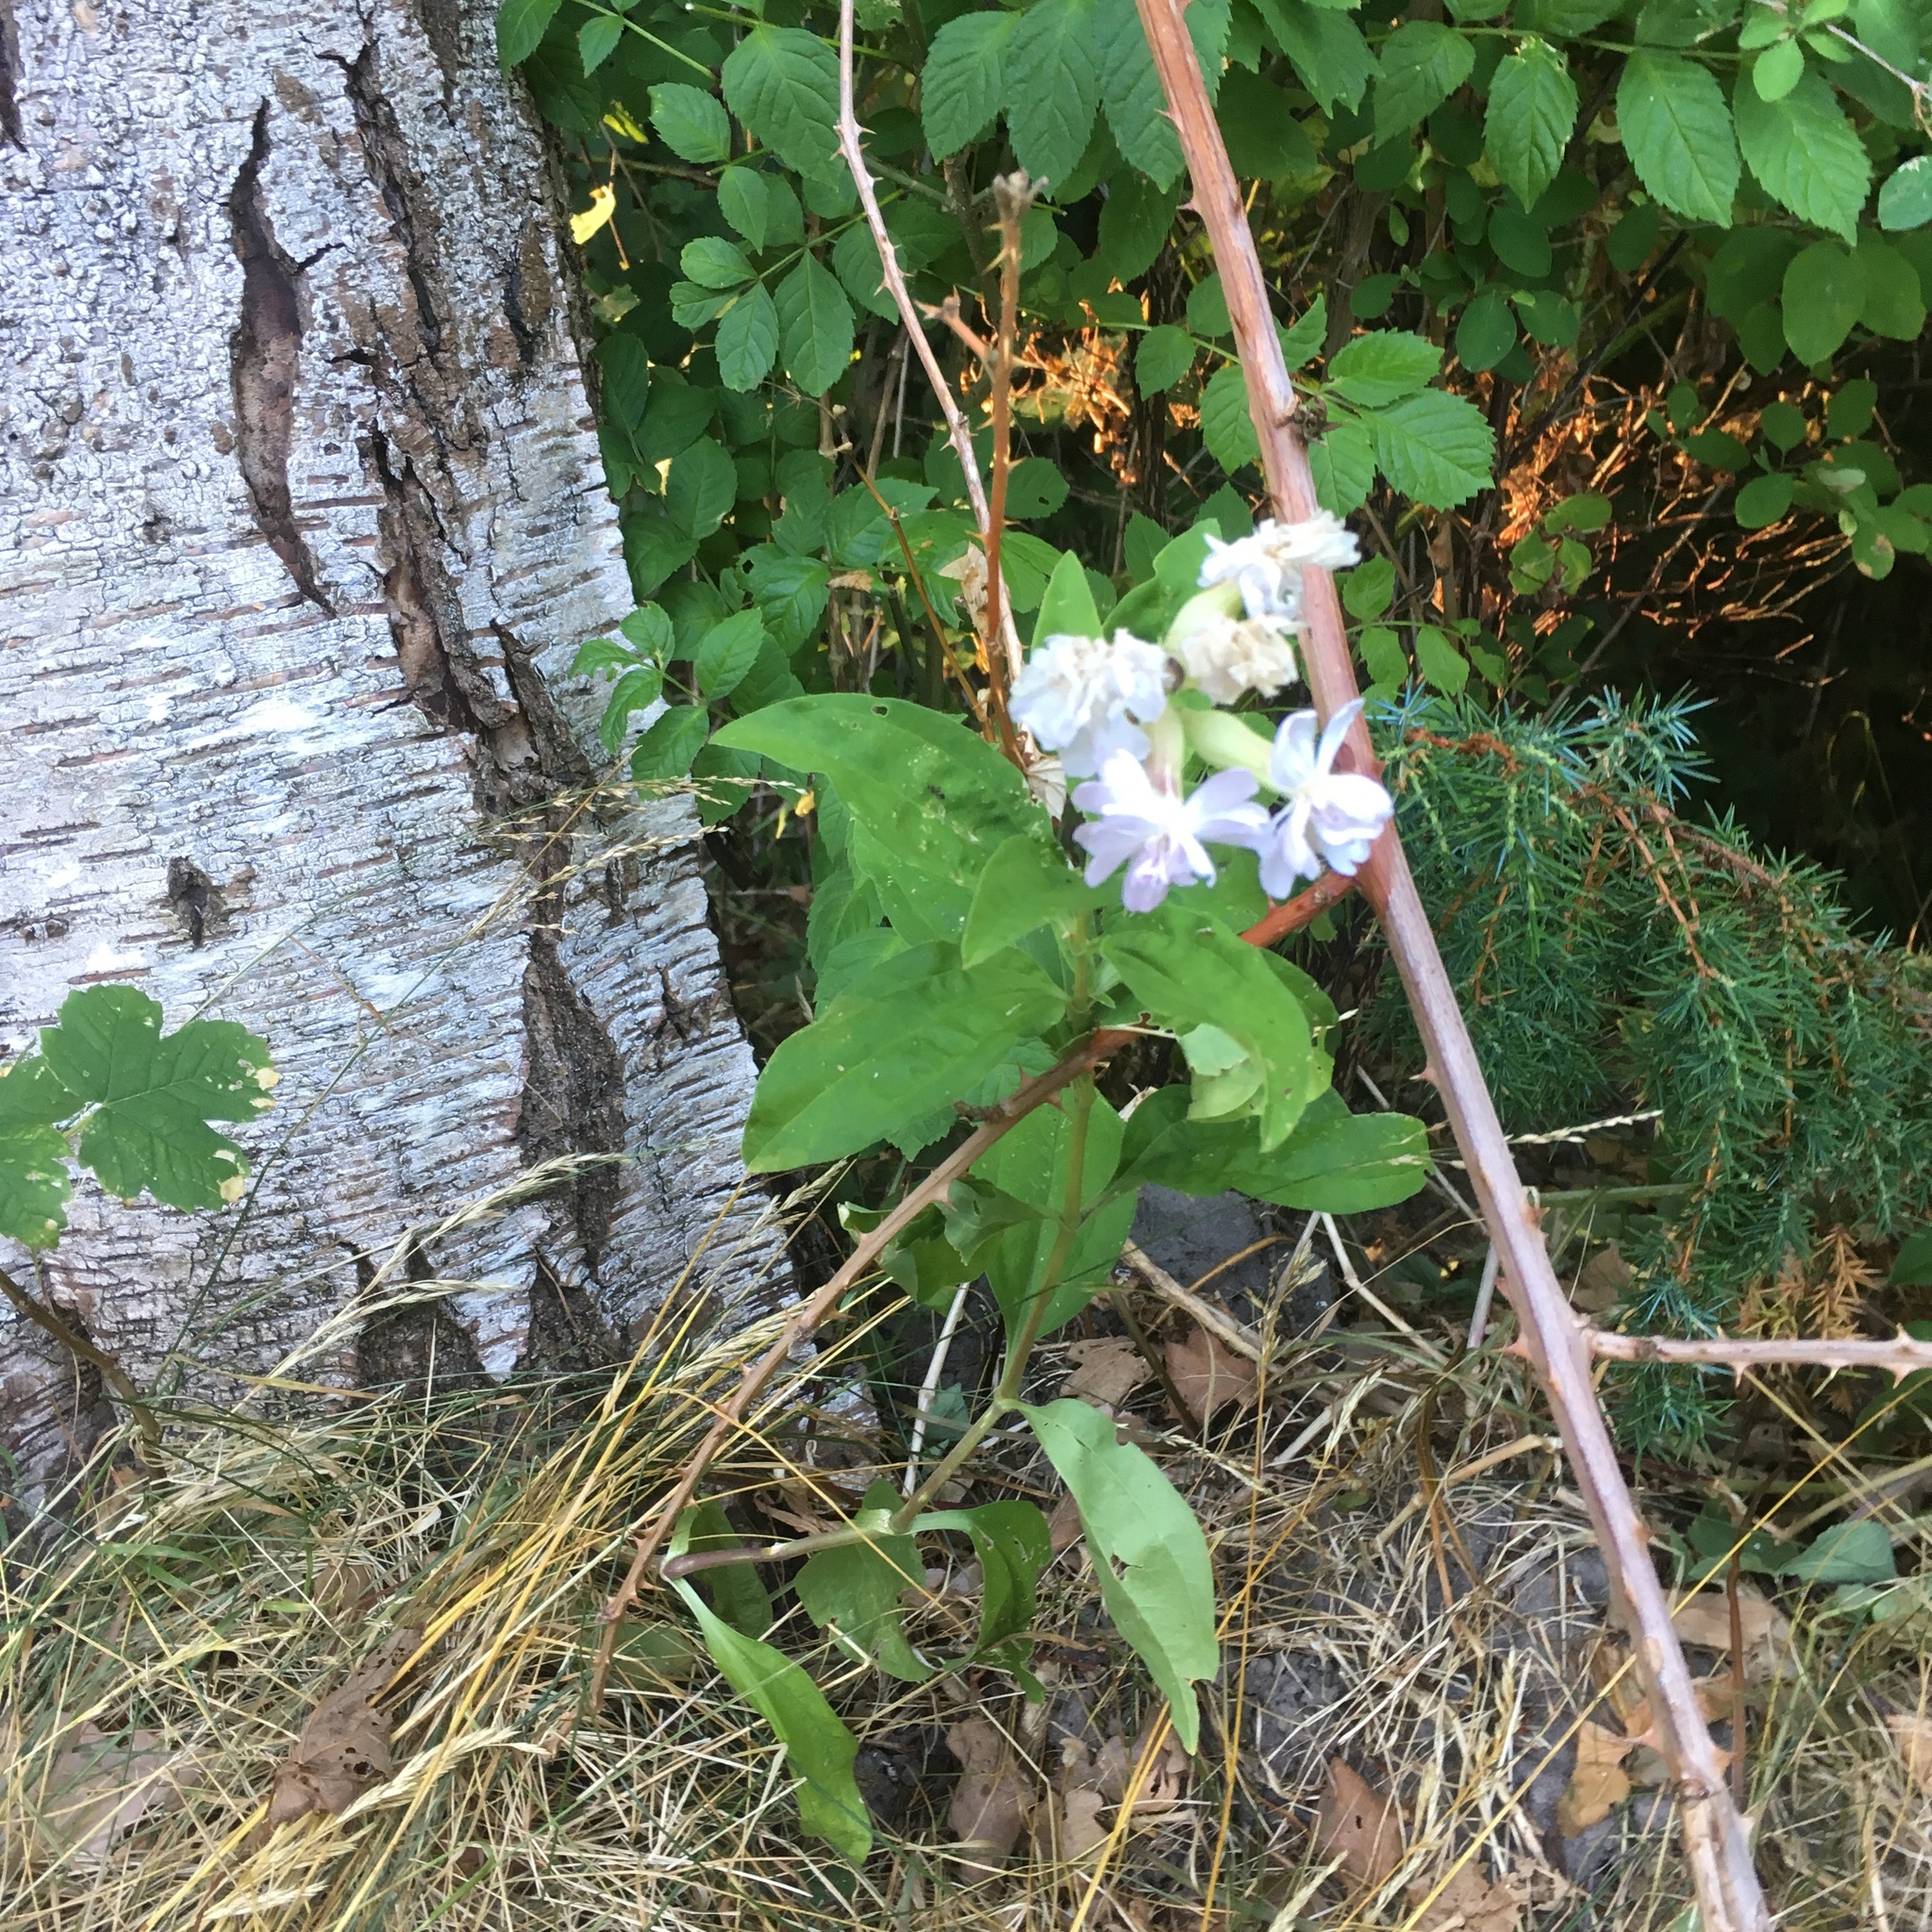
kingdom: Plantae
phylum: Tracheophyta
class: Magnoliopsida
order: Caryophyllales
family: Caryophyllaceae
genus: Saponaria
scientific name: Saponaria officinalis
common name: Soapwort
